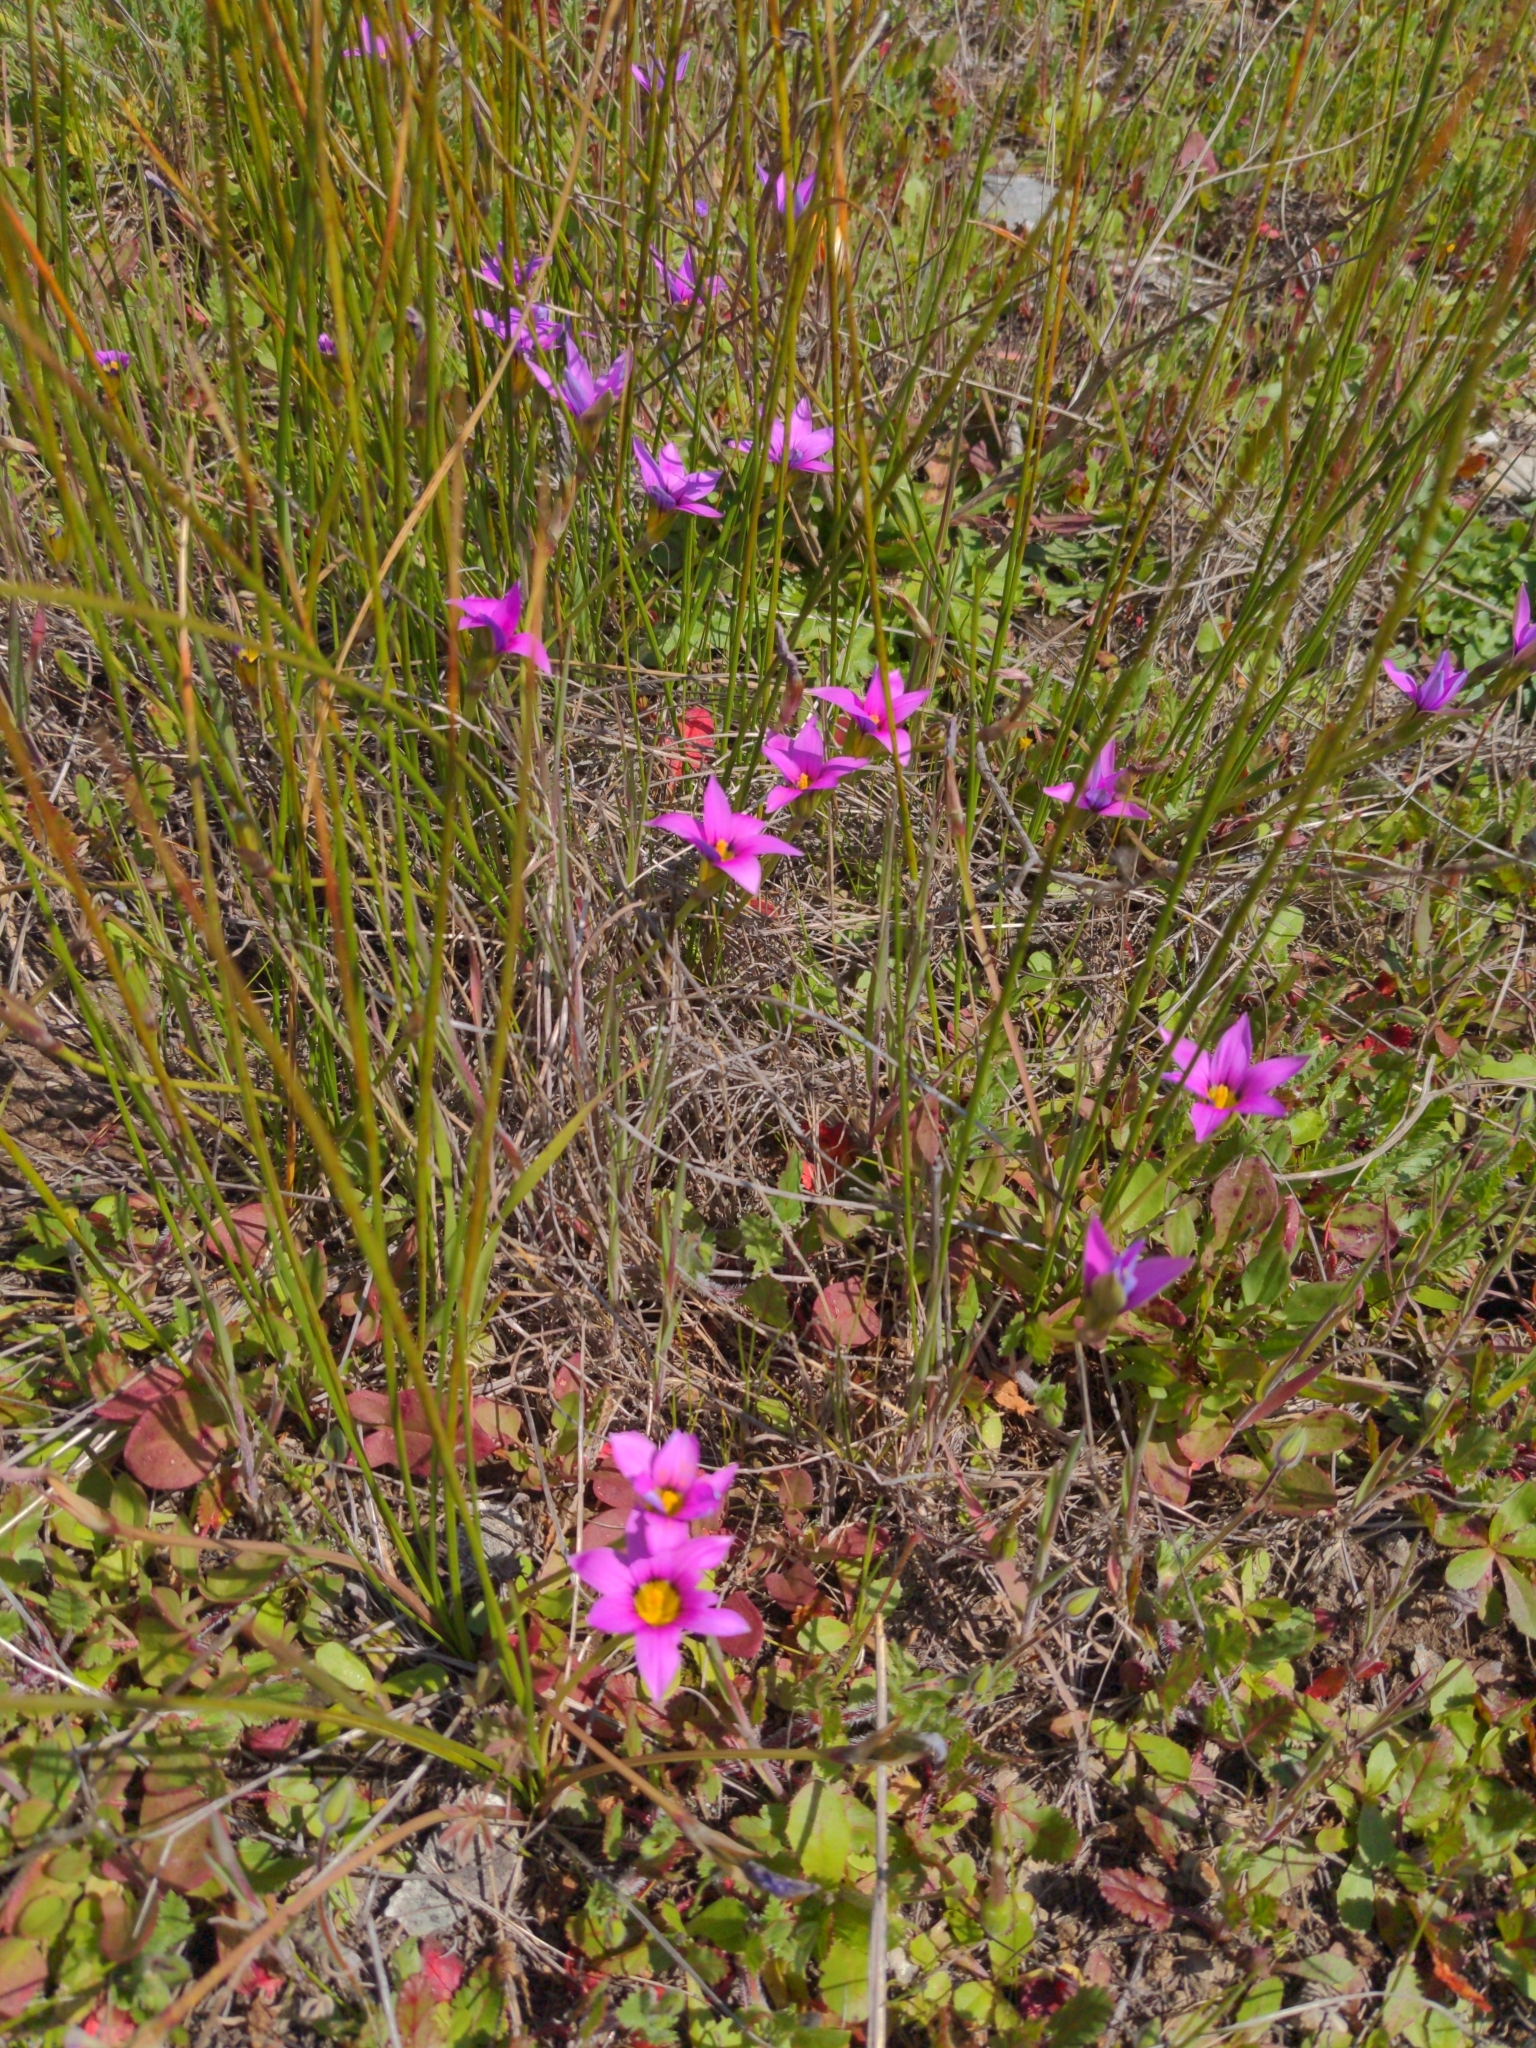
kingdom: Plantae
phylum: Tracheophyta
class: Liliopsida
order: Asparagales
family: Iridaceae
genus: Romulea
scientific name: Romulea rosea
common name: Oniongrass
